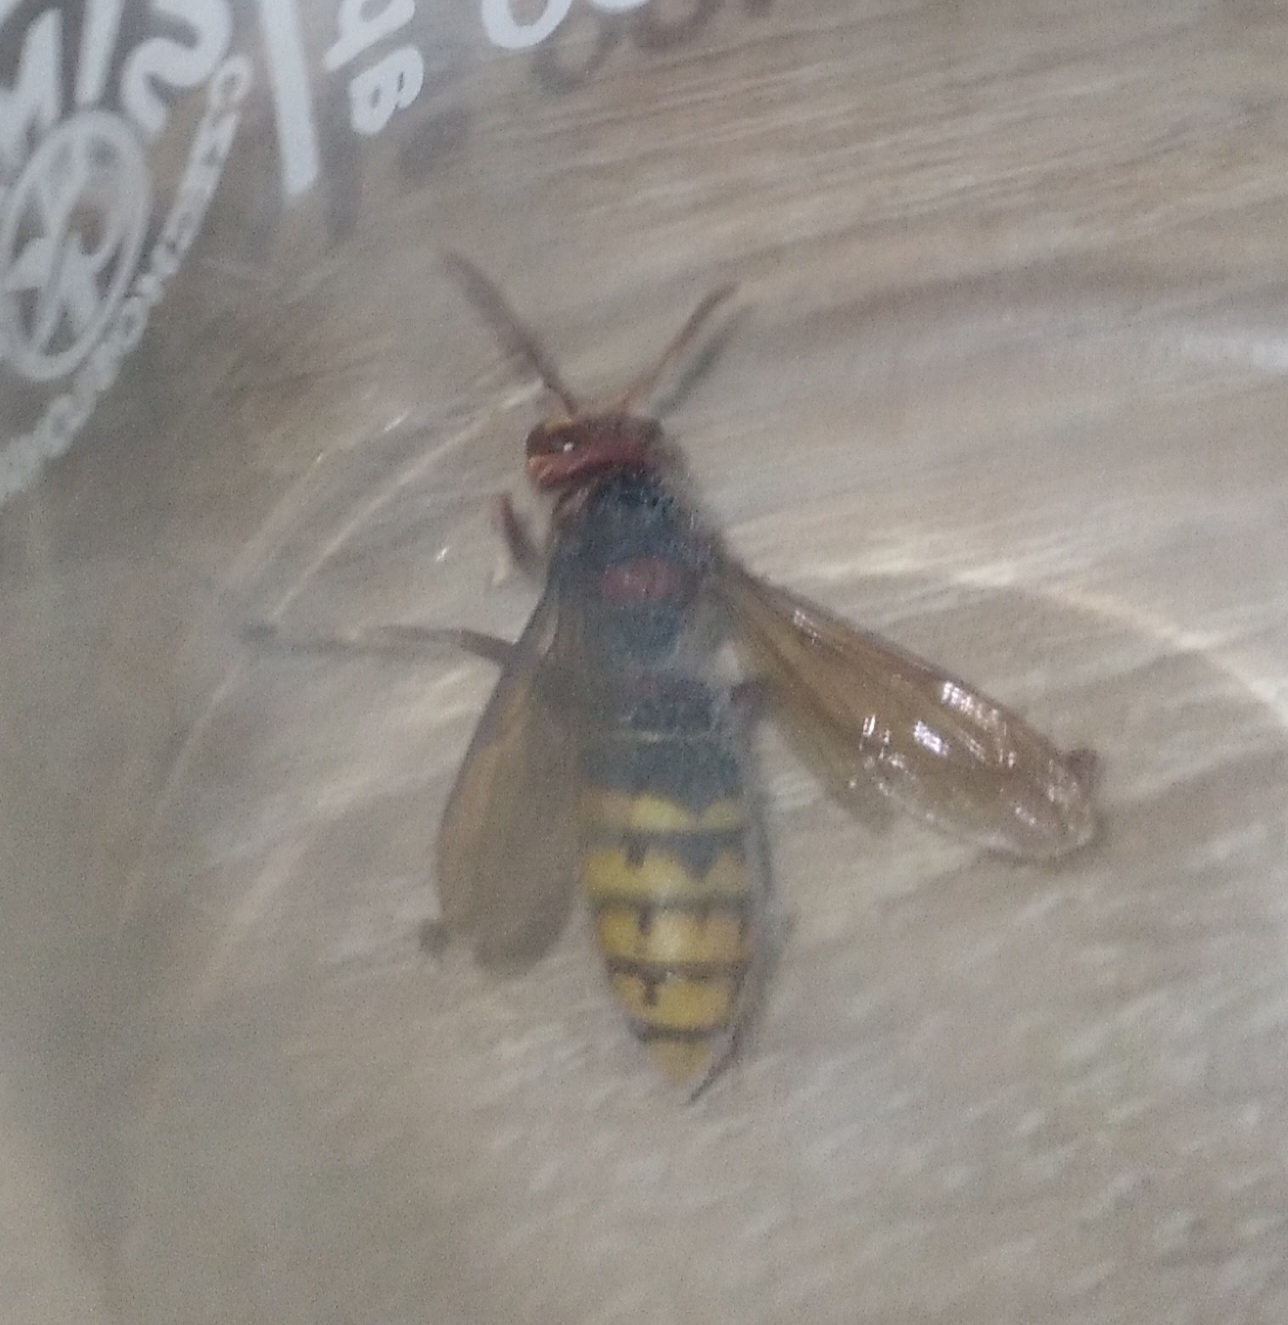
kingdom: Animalia
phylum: Arthropoda
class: Insecta
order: Hymenoptera
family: Vespidae
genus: Vespa
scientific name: Vespa crabro
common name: Hornet
